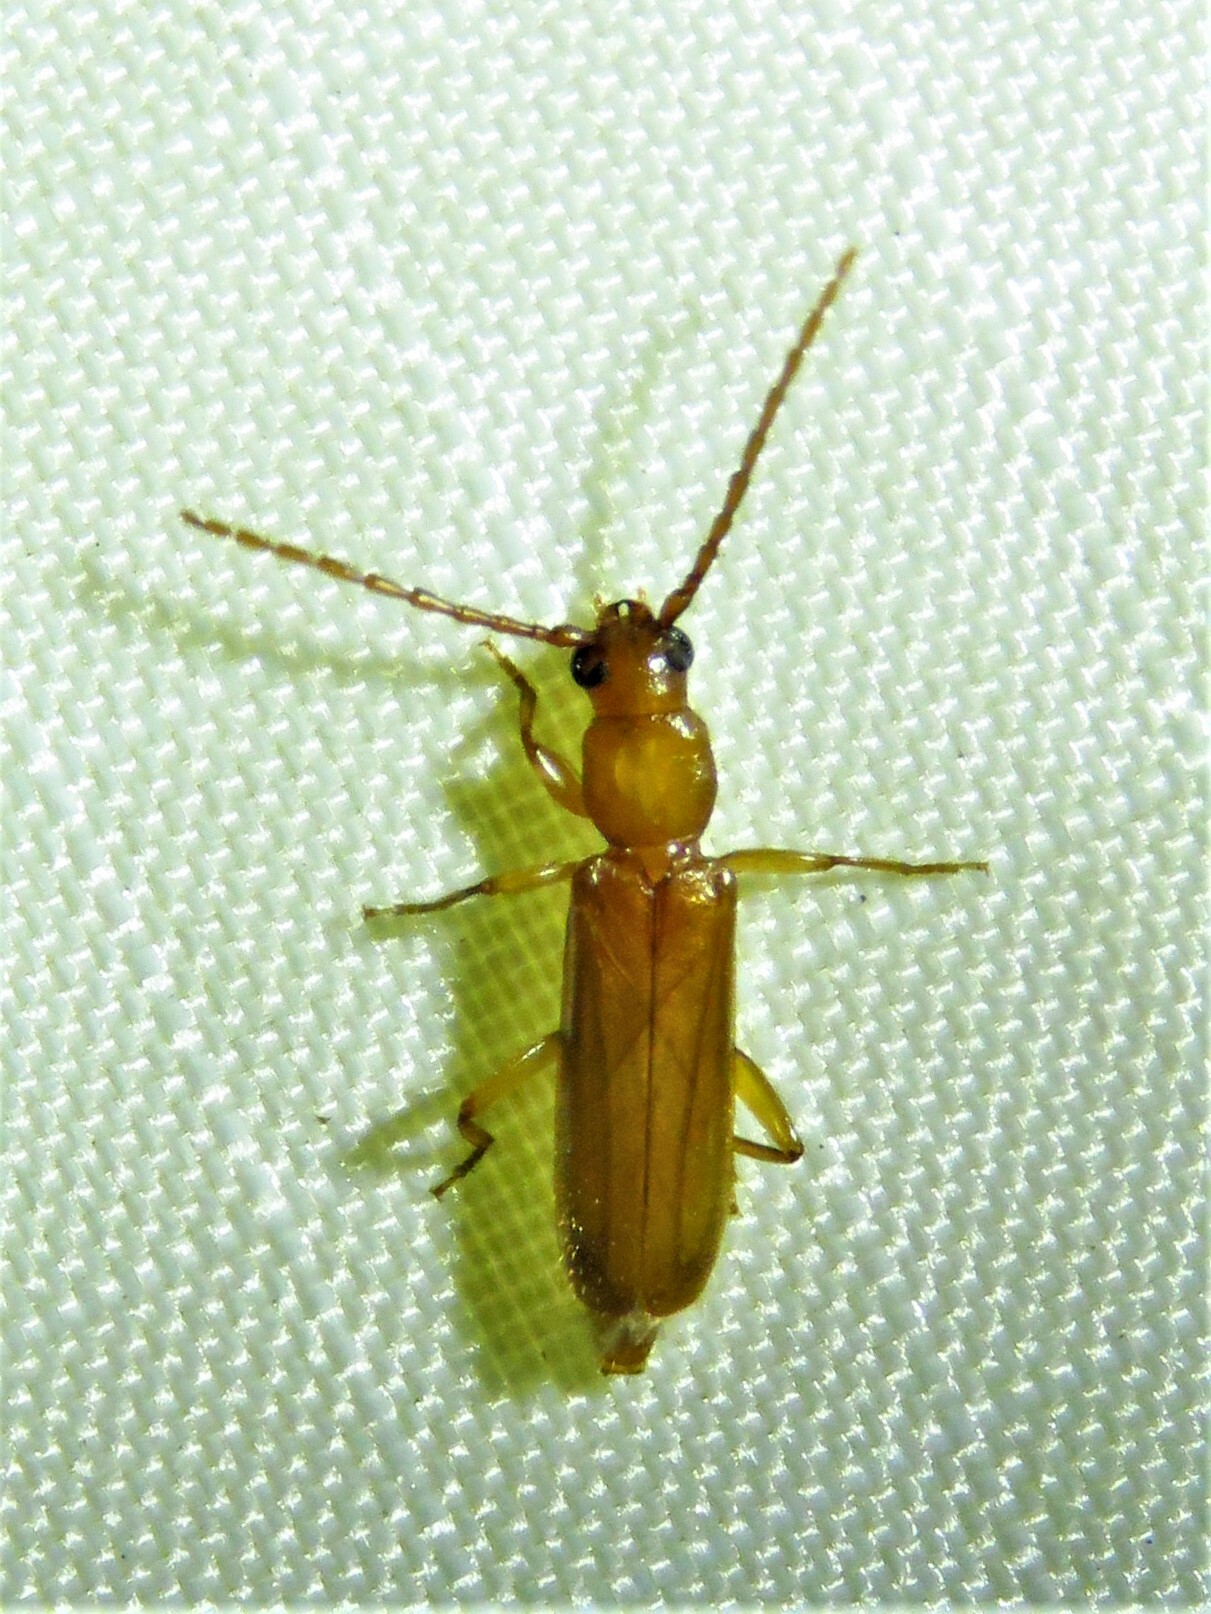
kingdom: Animalia
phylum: Arthropoda
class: Insecta
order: Coleoptera
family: Cerambycidae
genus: Smodicum
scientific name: Smodicum cucujiforme
